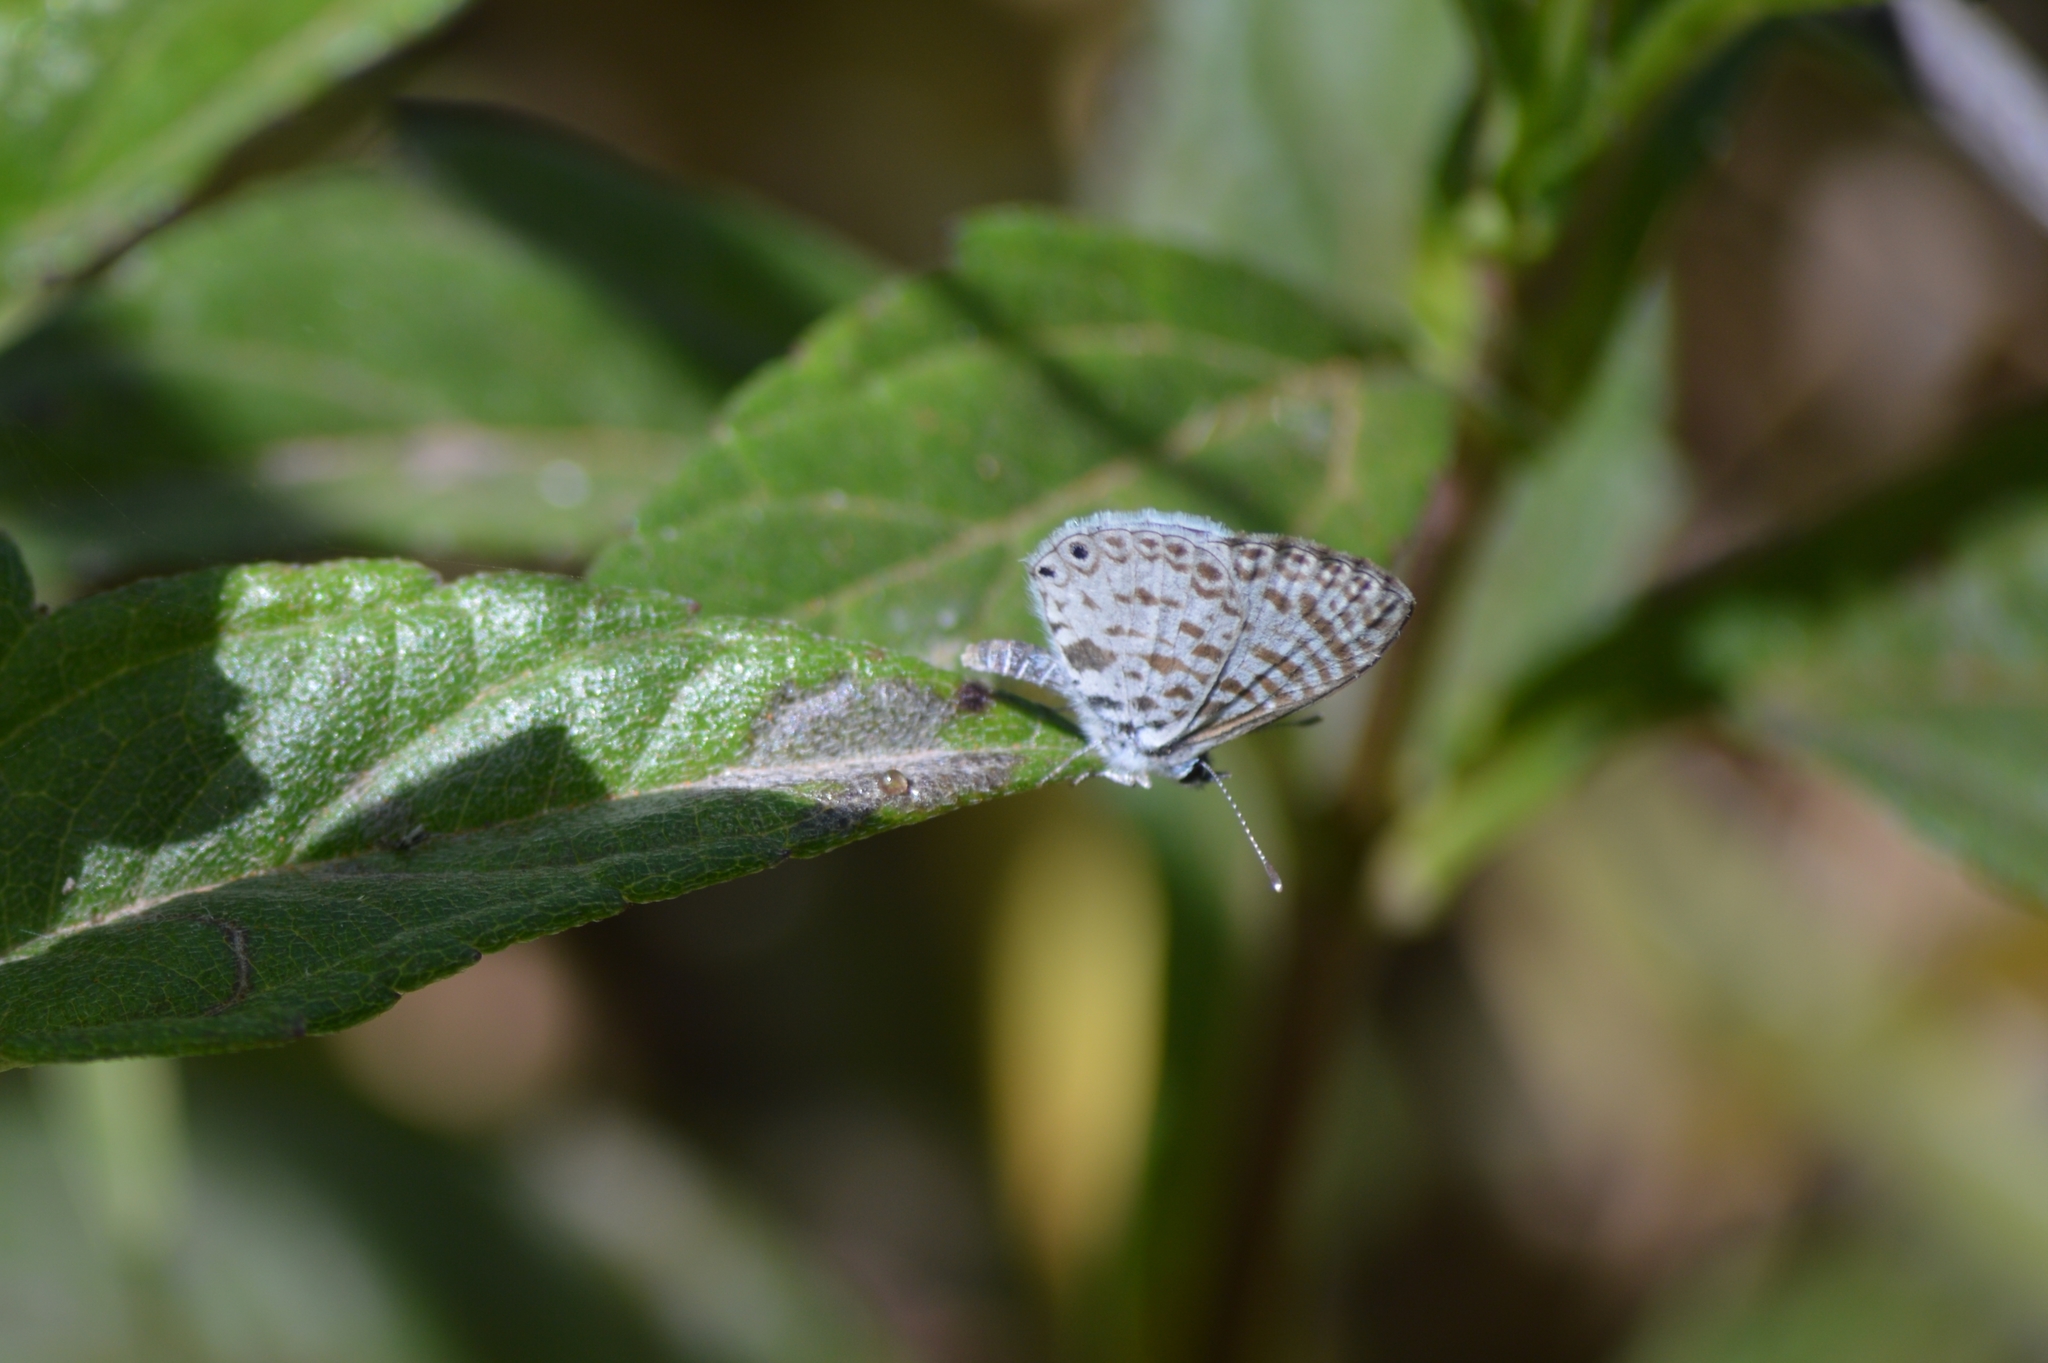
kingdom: Animalia
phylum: Arthropoda
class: Insecta
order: Lepidoptera
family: Lycaenidae
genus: Leptotes
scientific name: Leptotes cassius
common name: Cassius blue
